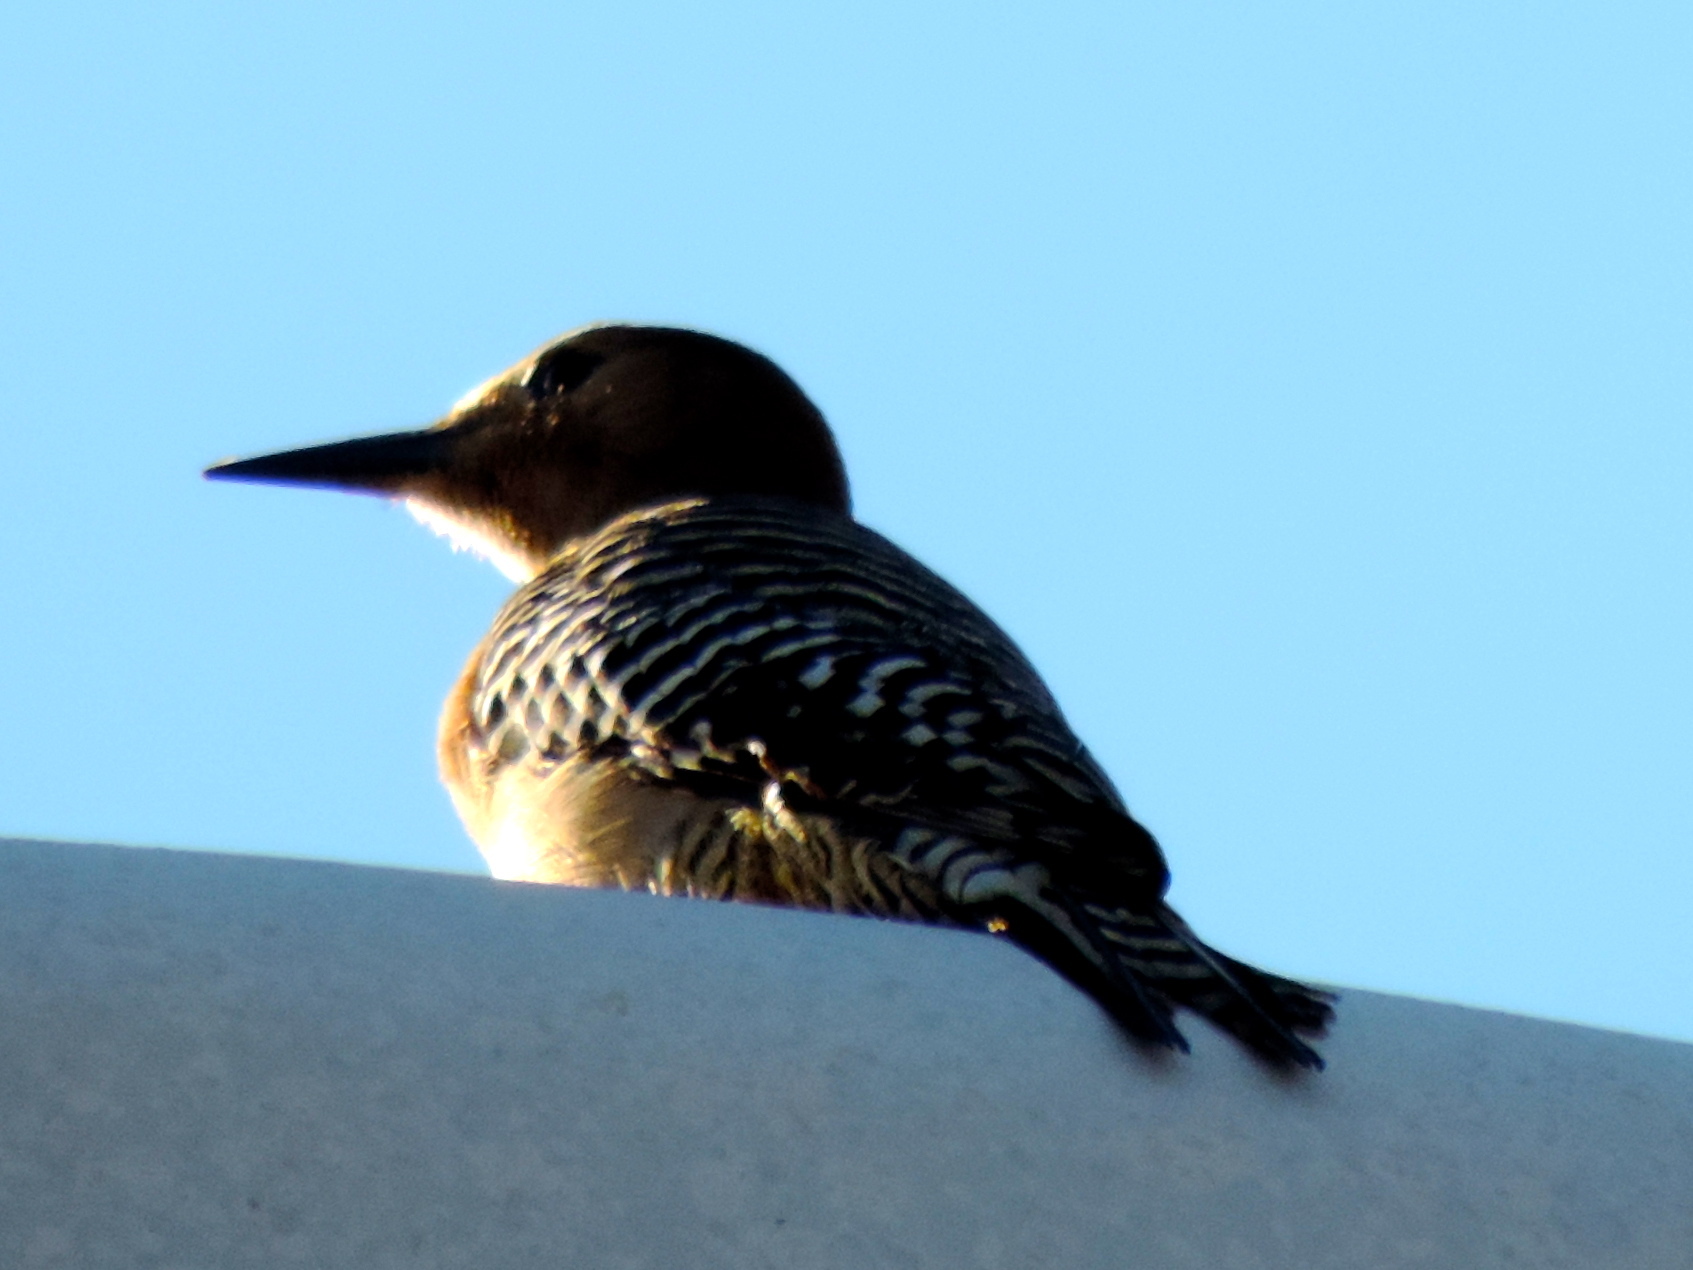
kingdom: Animalia
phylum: Chordata
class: Aves
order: Piciformes
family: Picidae
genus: Melanerpes
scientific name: Melanerpes uropygialis
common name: Gila woodpecker
